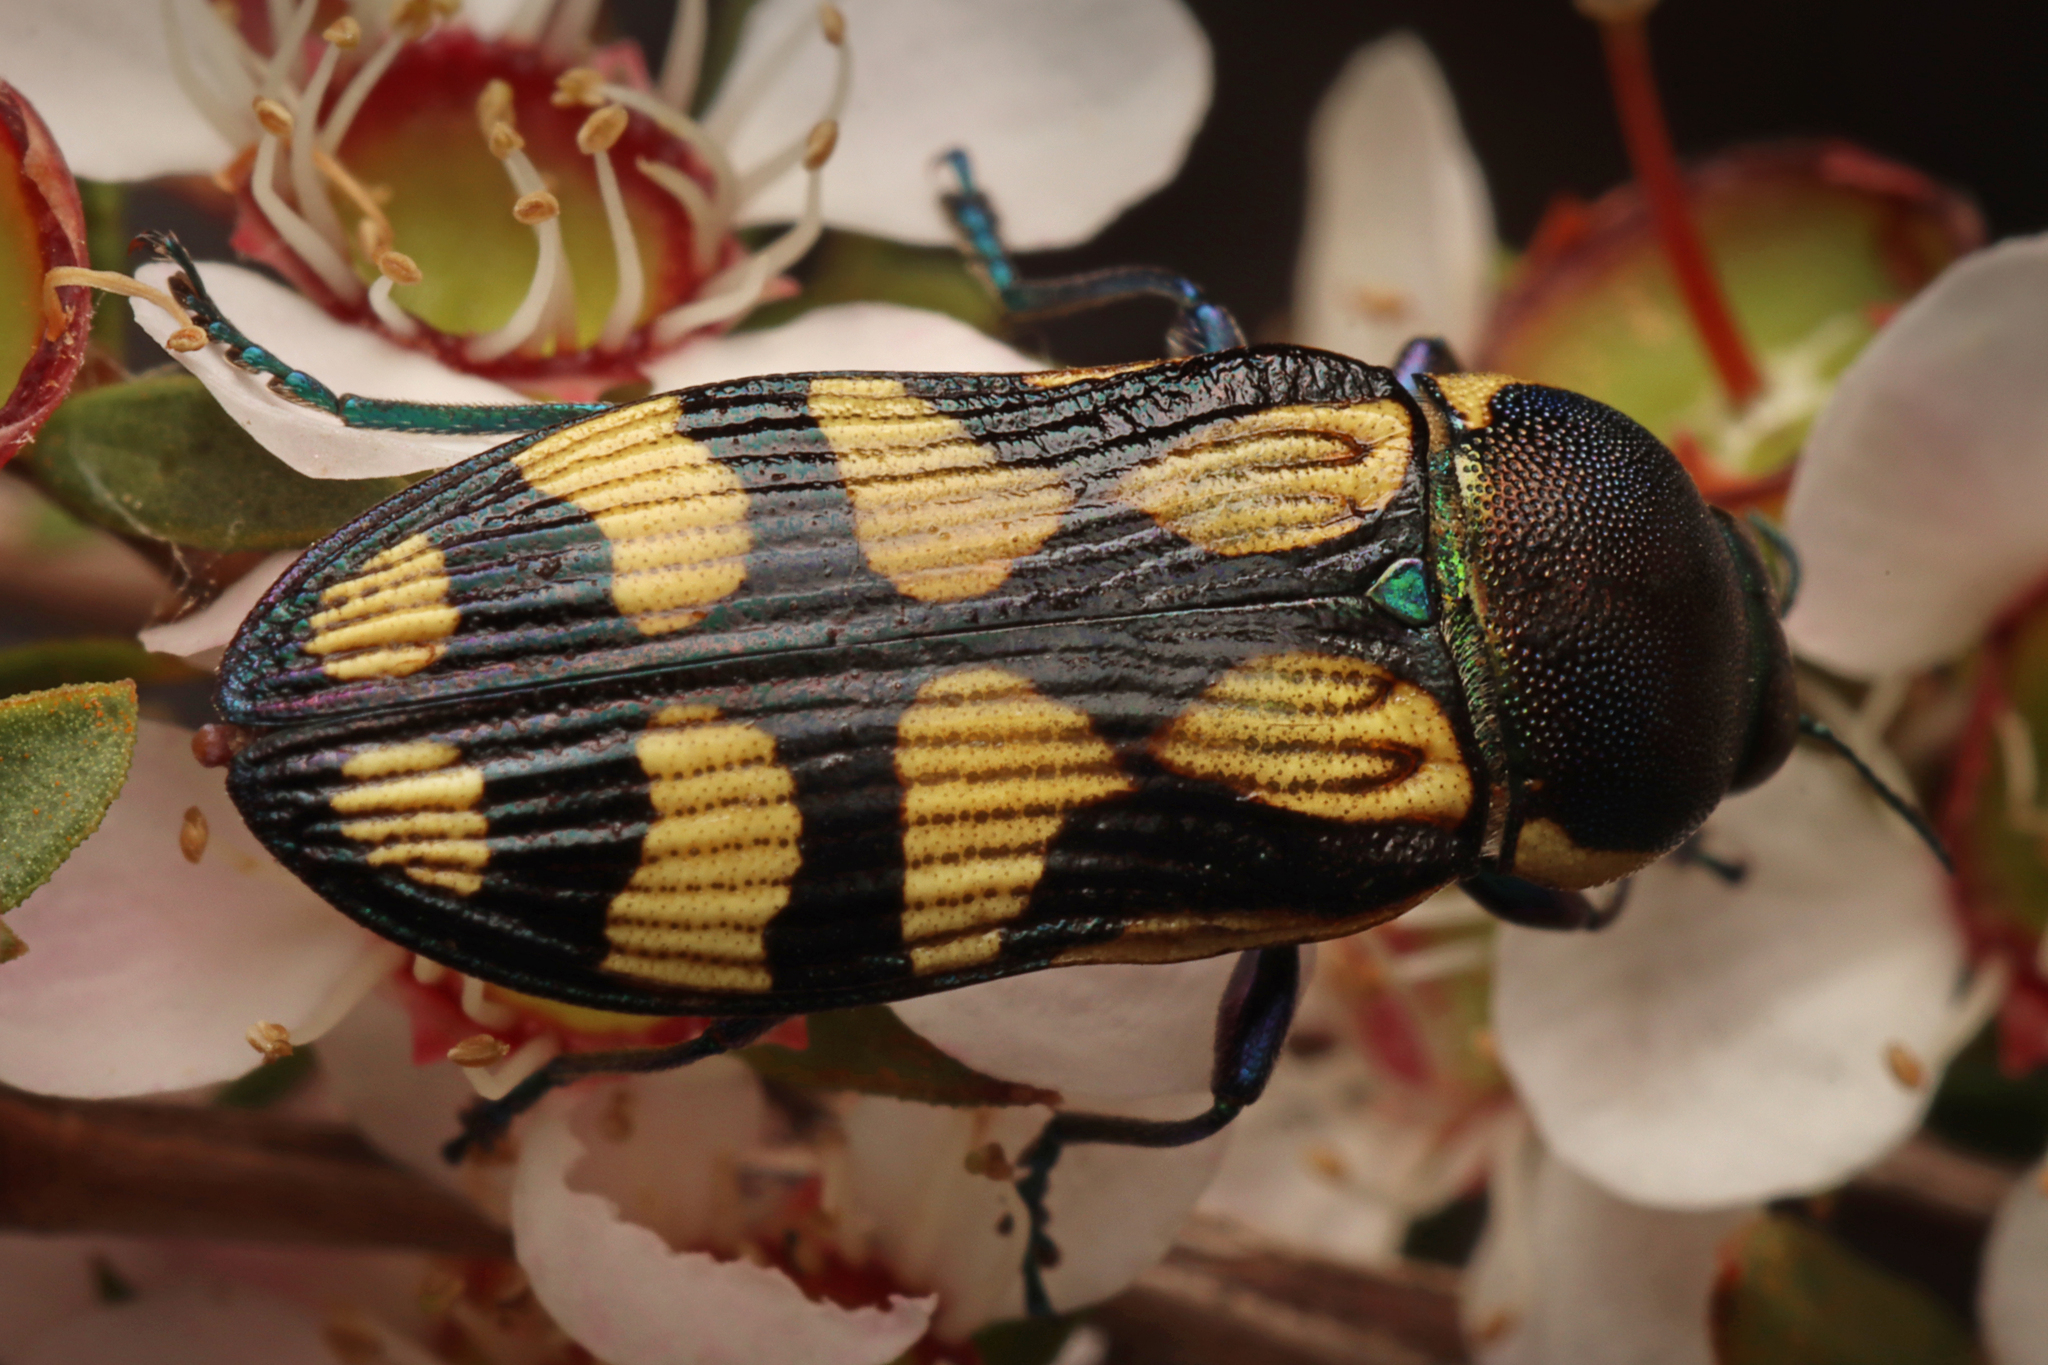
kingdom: Animalia
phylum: Arthropoda
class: Insecta
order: Coleoptera
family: Buprestidae
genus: Castiarina
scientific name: Castiarina adelaidae
